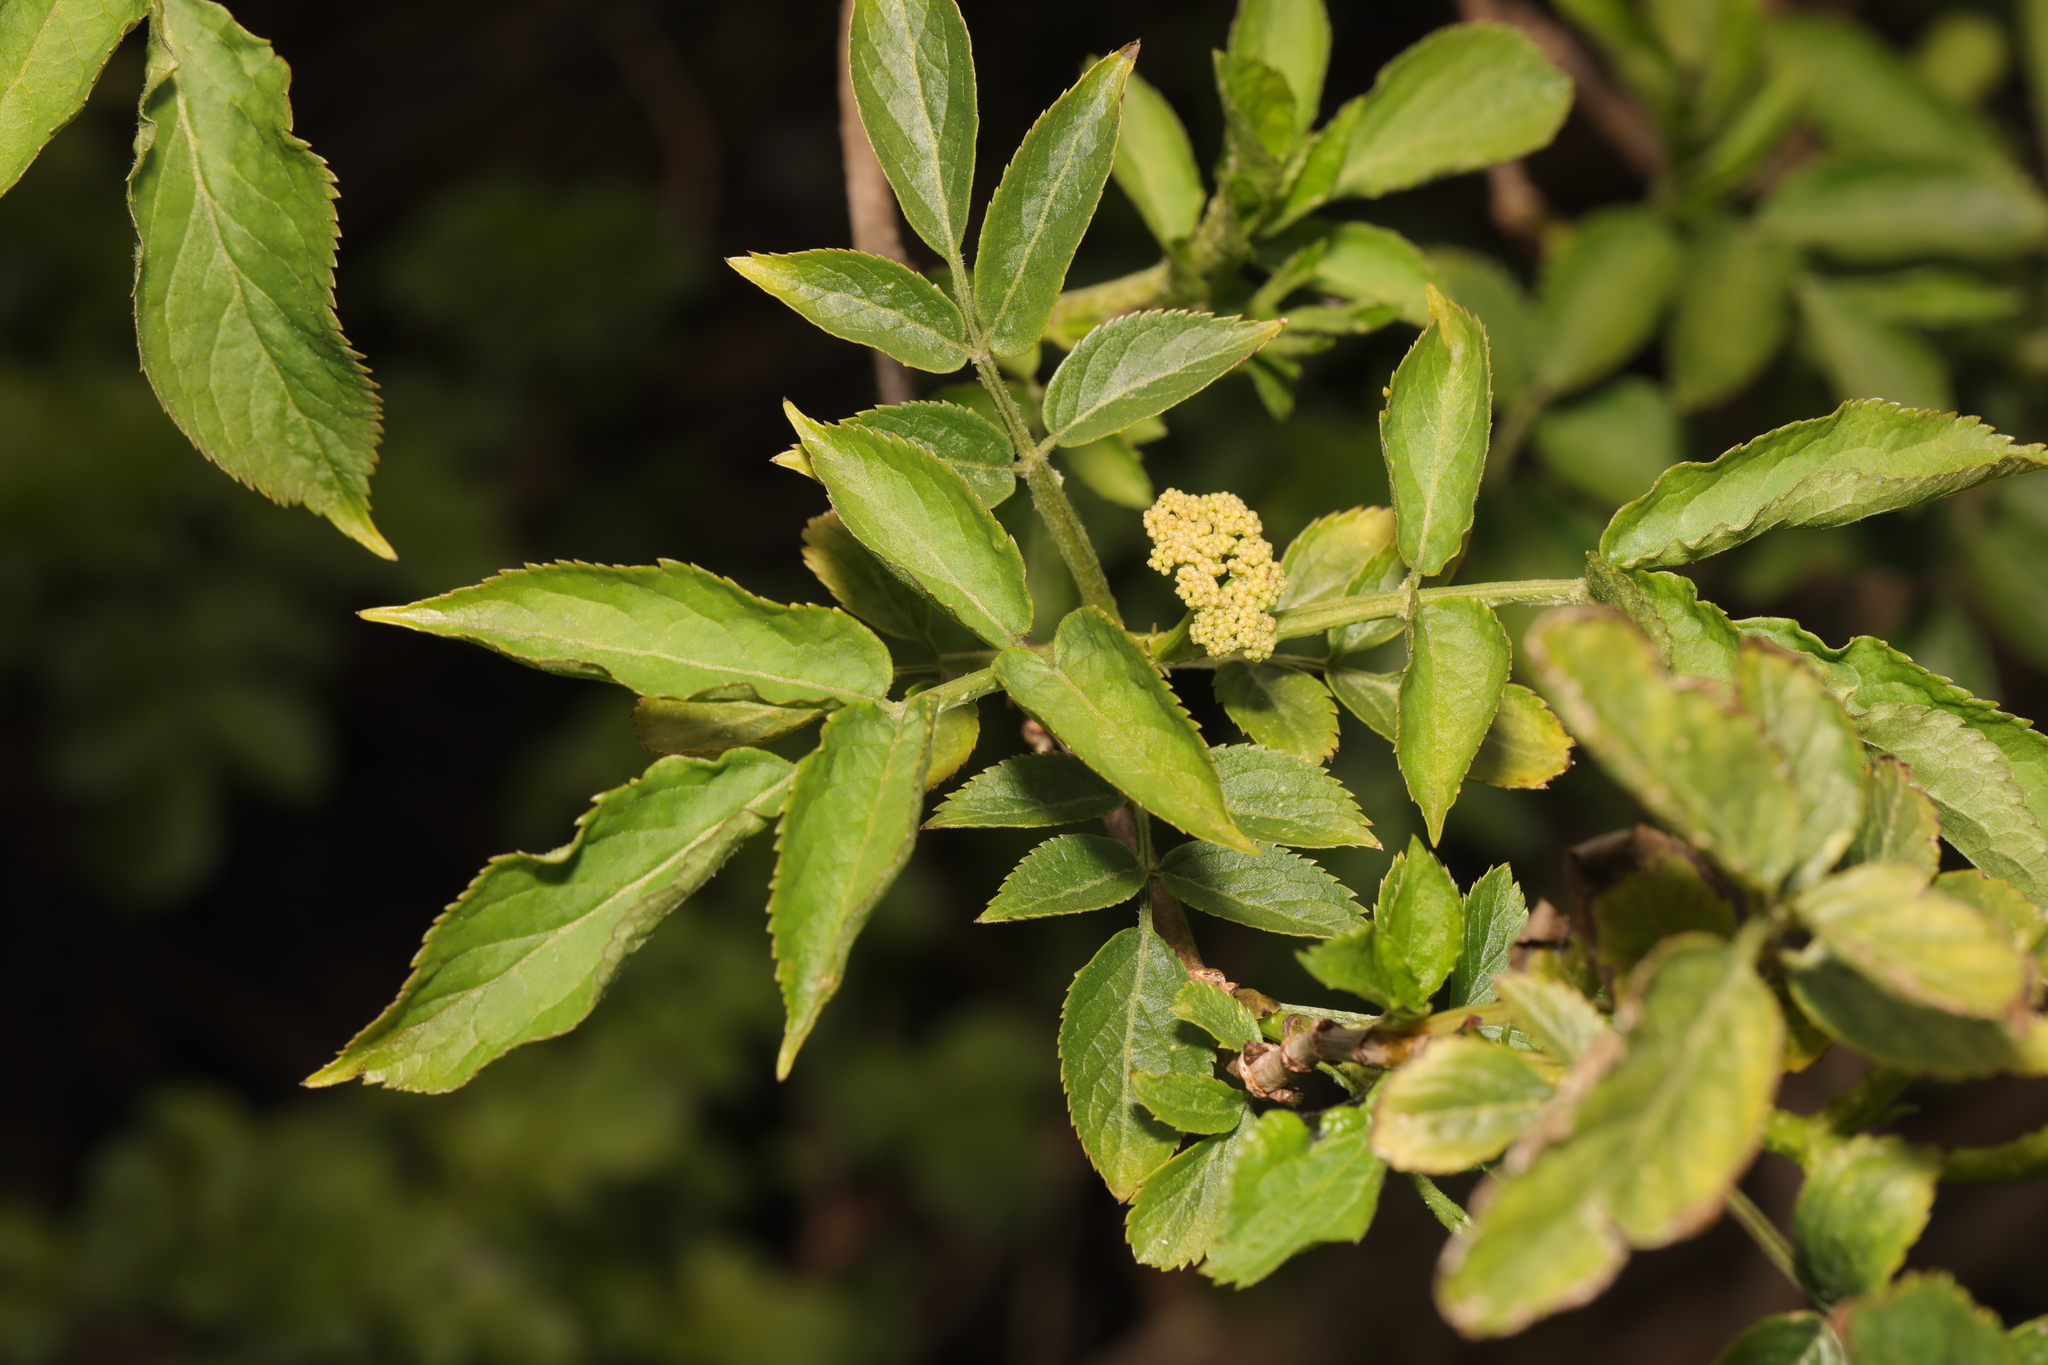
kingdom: Plantae
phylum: Tracheophyta
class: Magnoliopsida
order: Dipsacales
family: Viburnaceae
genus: Sambucus
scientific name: Sambucus nigra
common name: Elder
